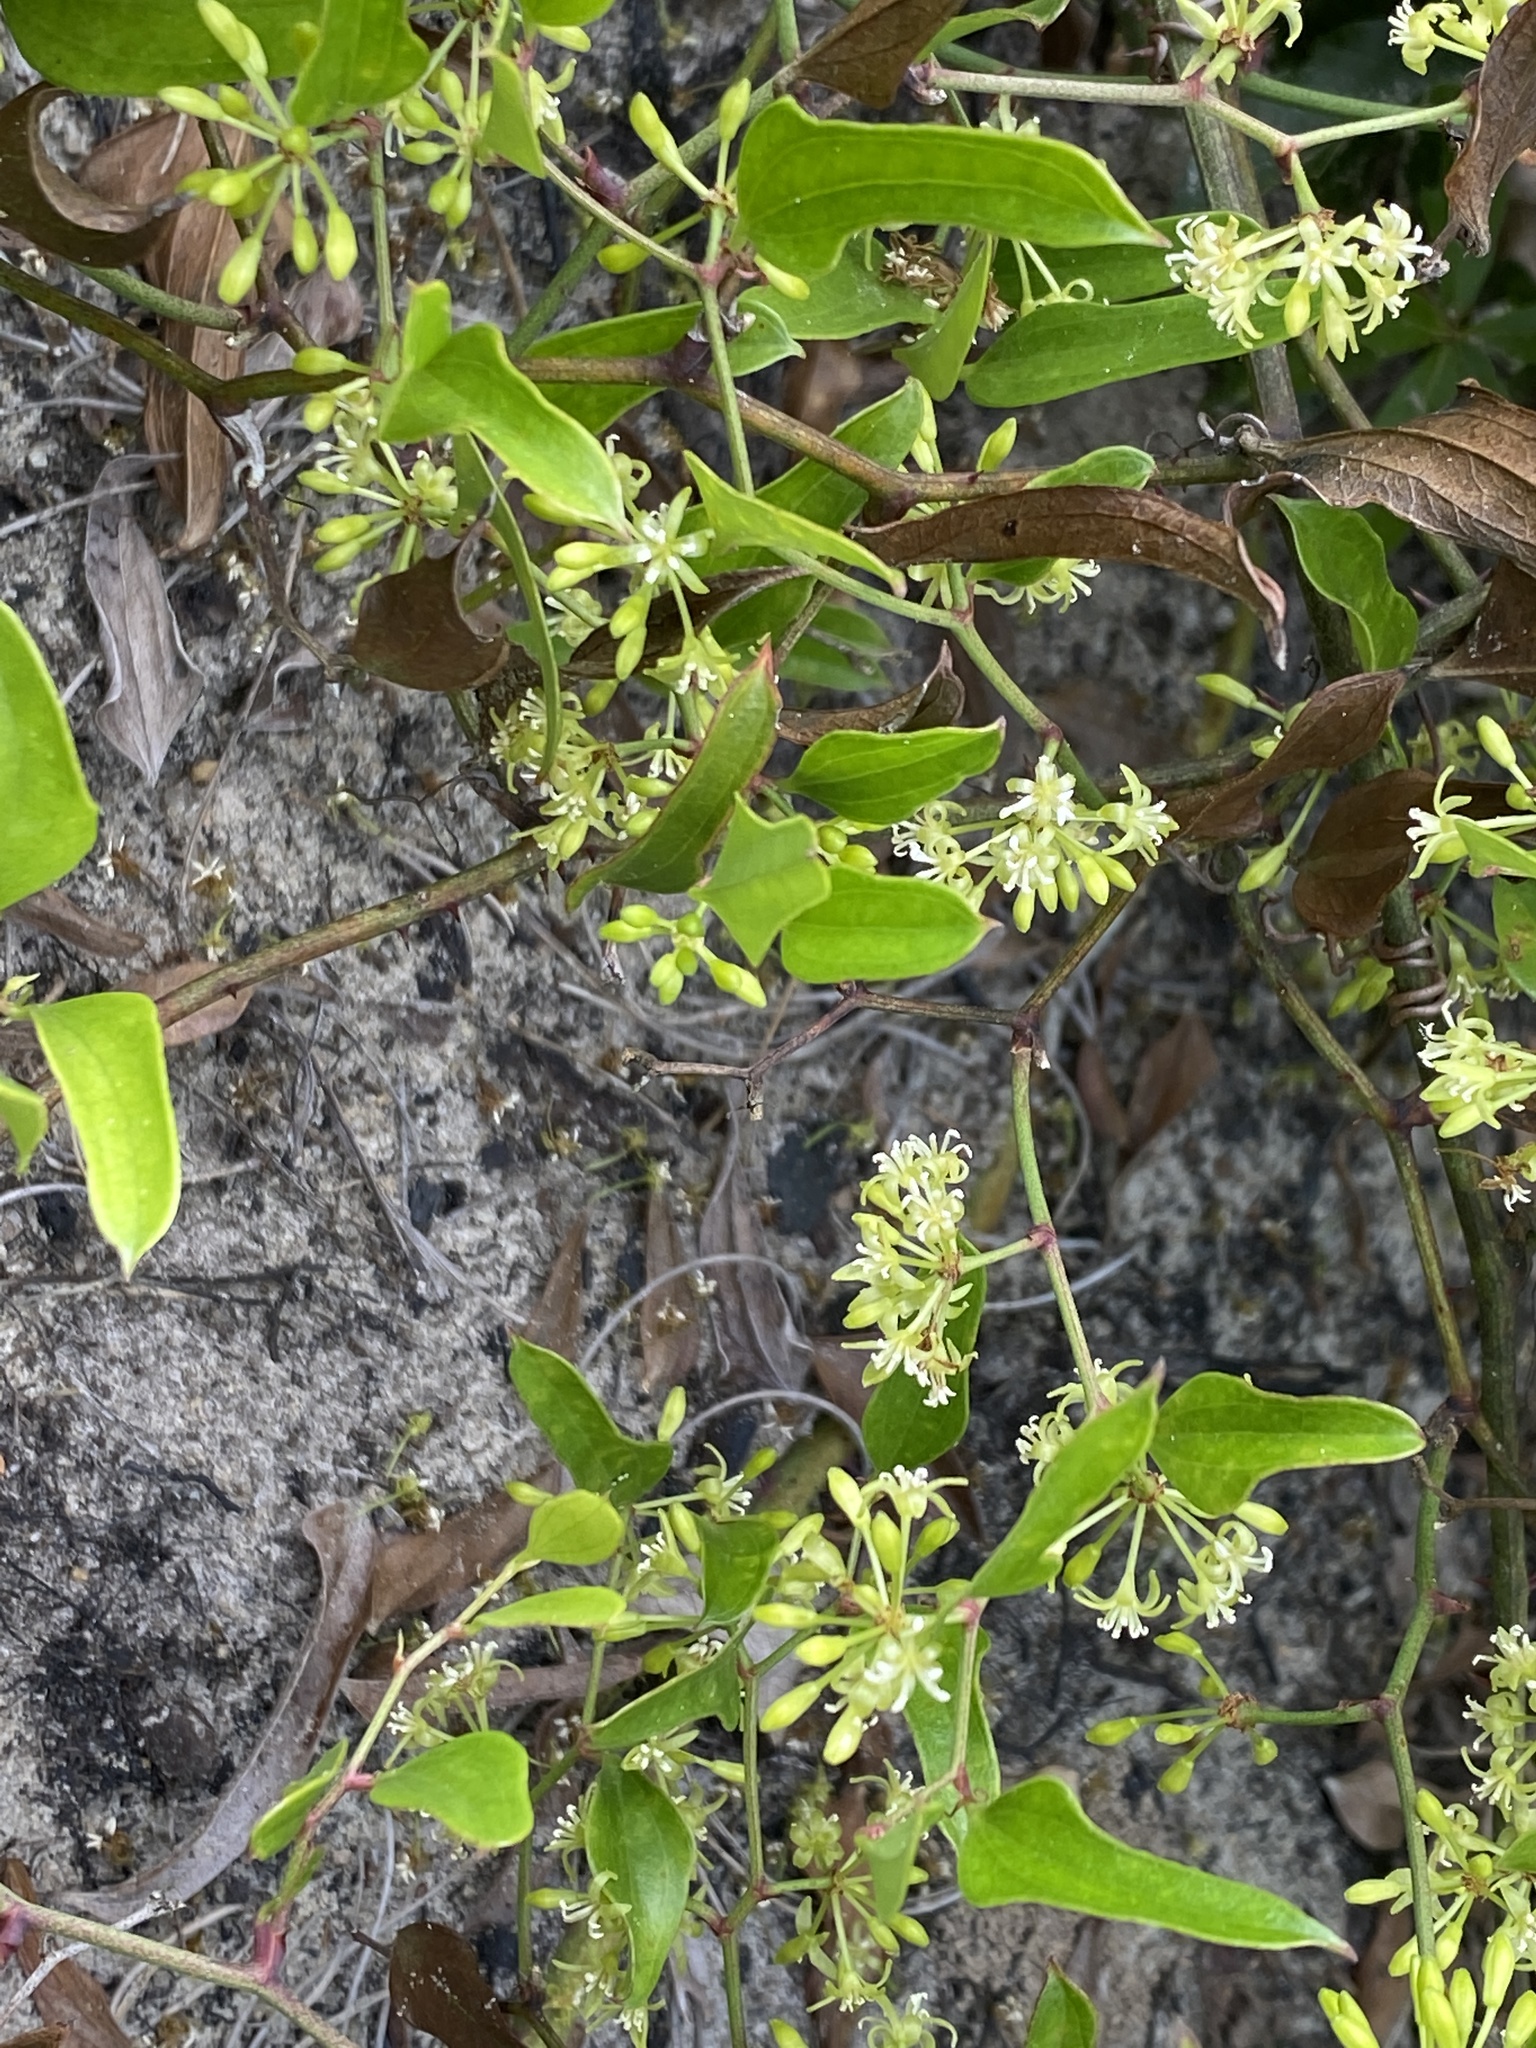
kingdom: Plantae
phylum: Tracheophyta
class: Liliopsida
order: Liliales
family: Smilacaceae
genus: Smilax
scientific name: Smilax auriculata
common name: Wild bamboo
